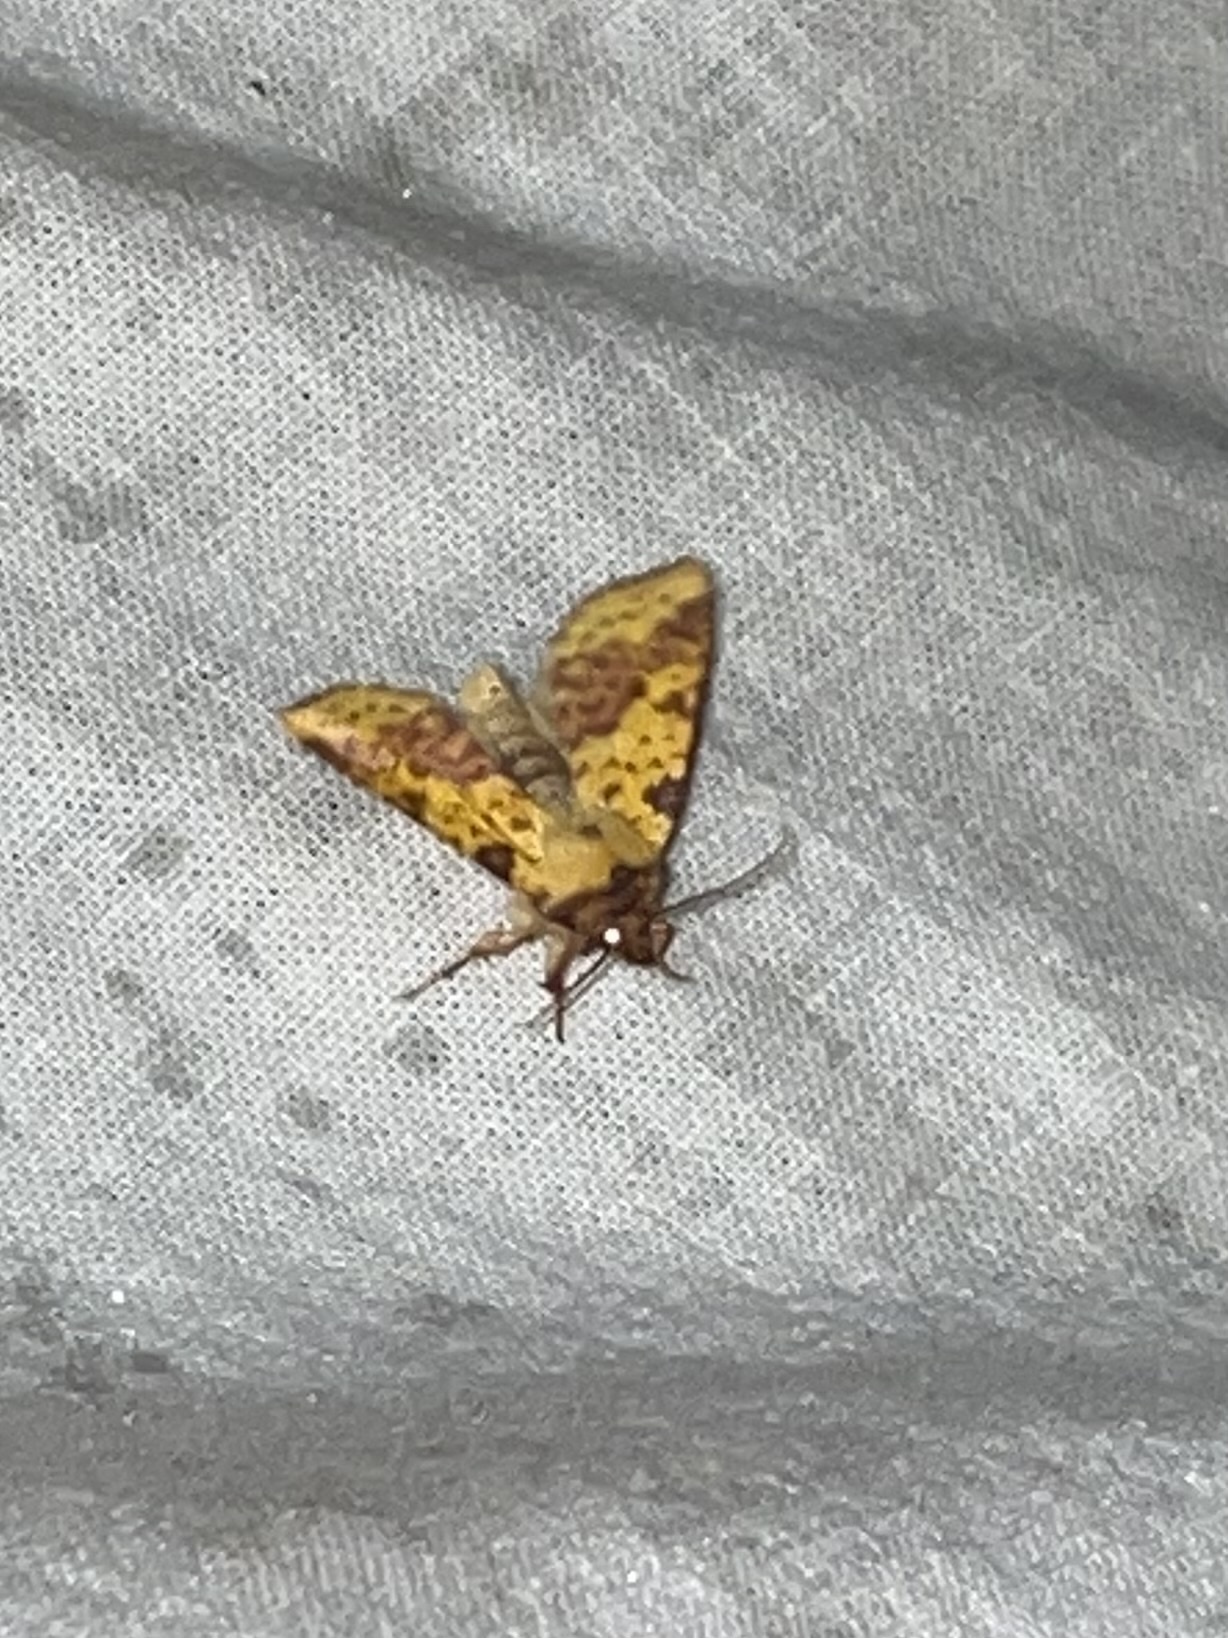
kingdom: Animalia
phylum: Arthropoda
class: Insecta
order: Lepidoptera
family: Noctuidae
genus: Xanthia
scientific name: Xanthia togata
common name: Pink-barred sallow
